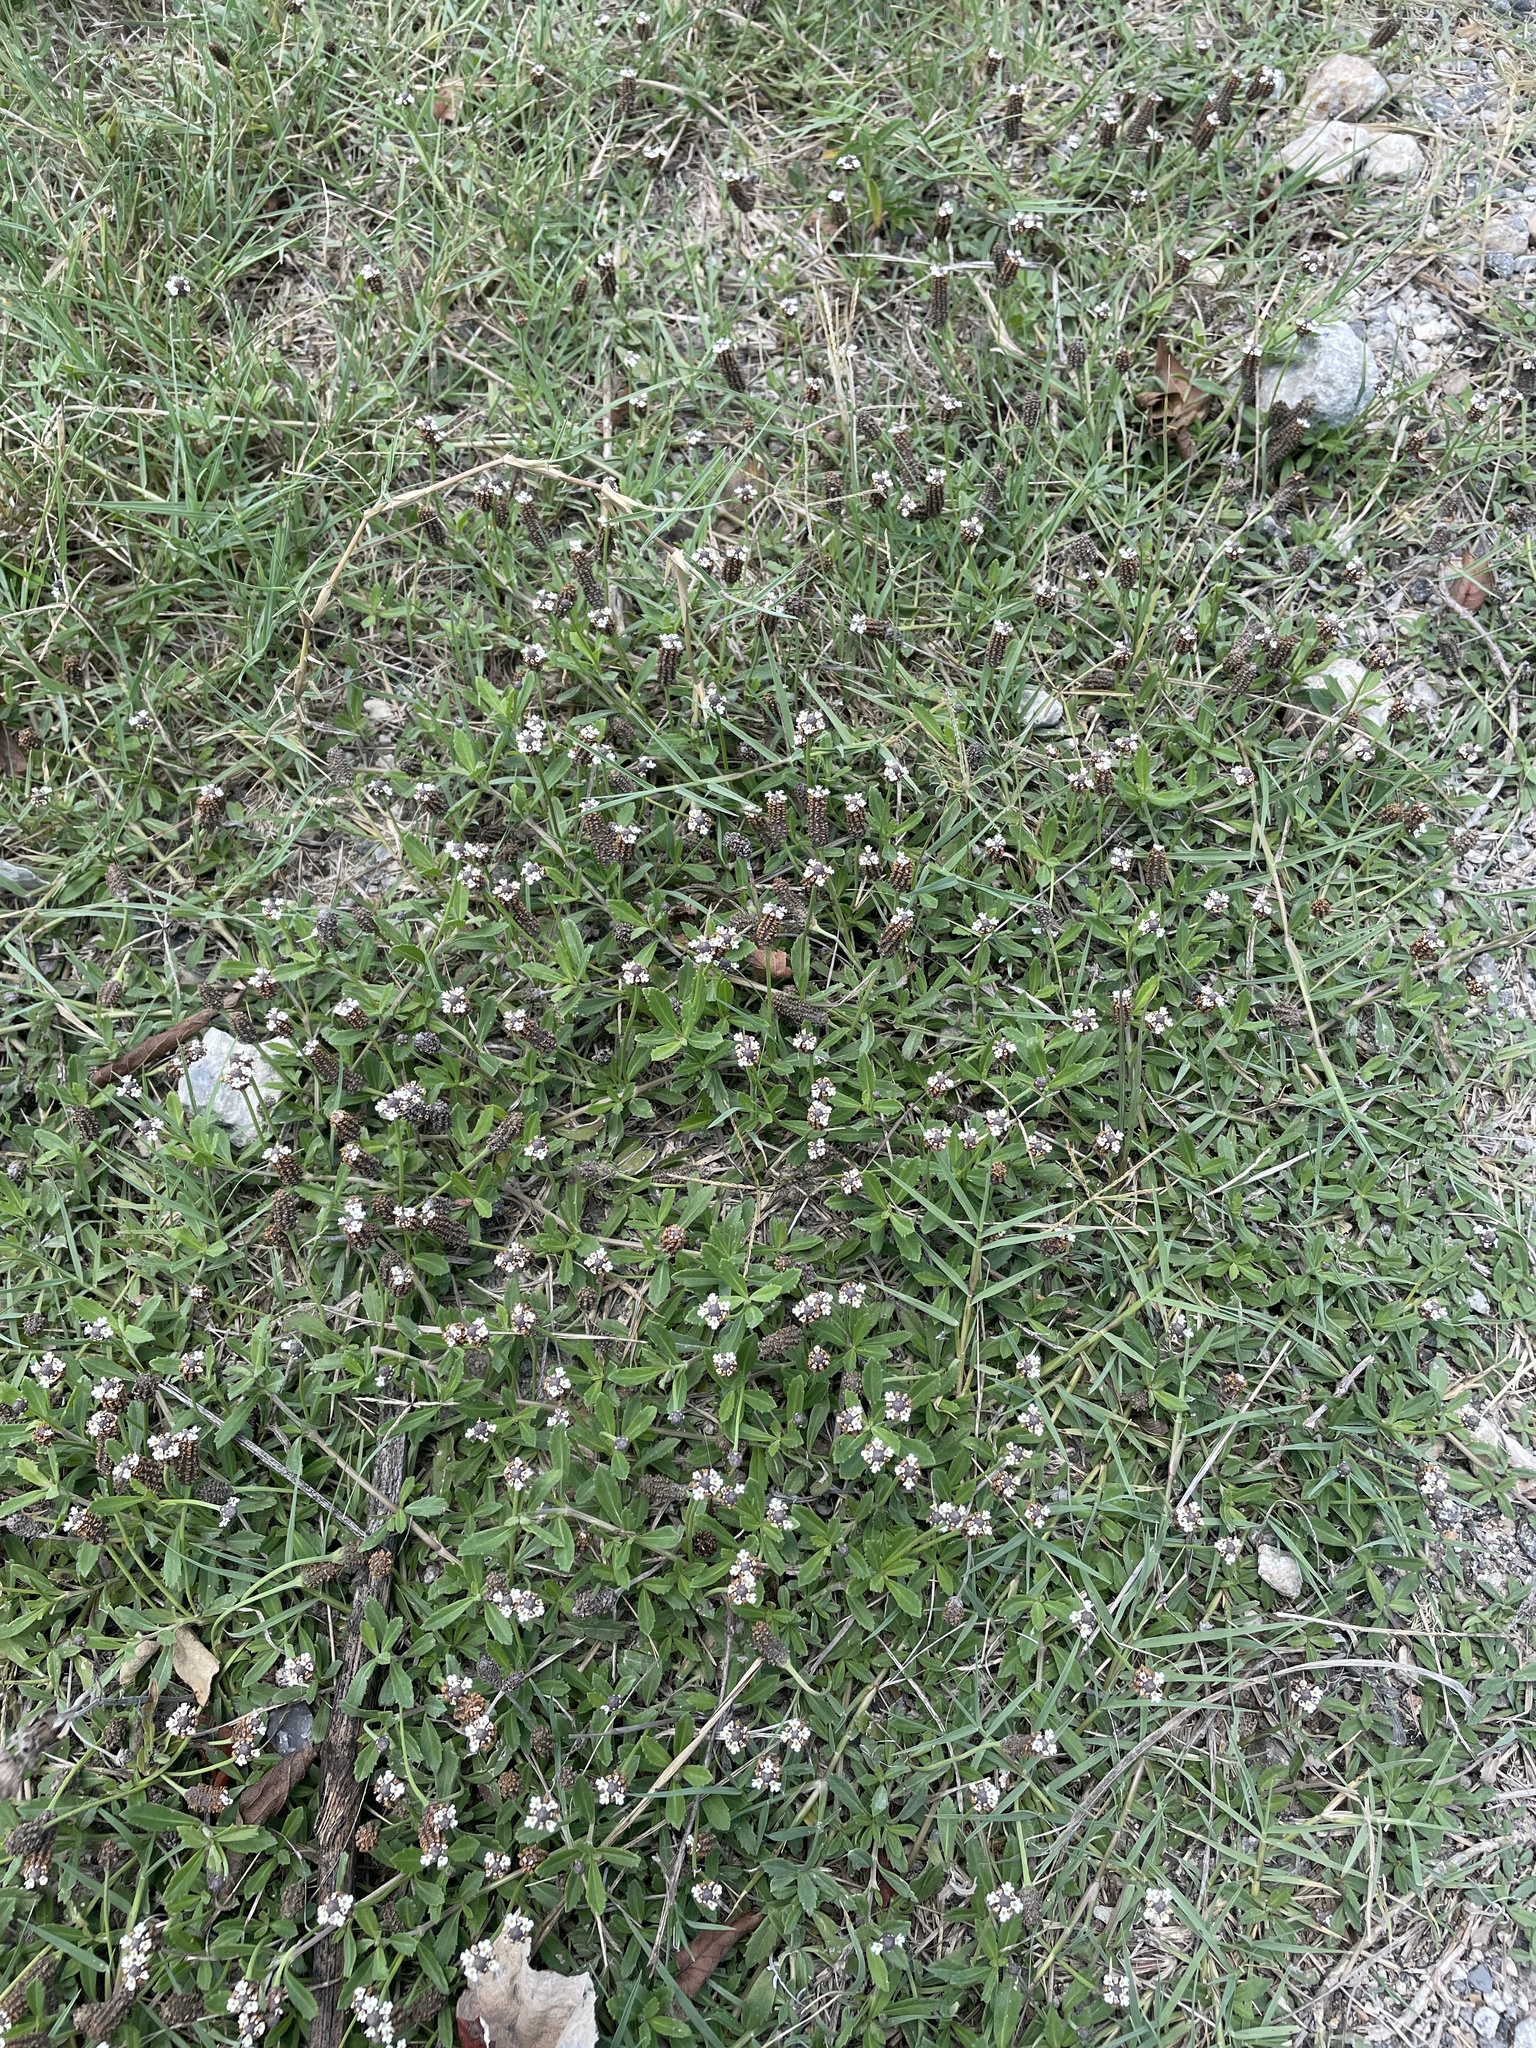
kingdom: Plantae
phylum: Tracheophyta
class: Magnoliopsida
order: Lamiales
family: Verbenaceae
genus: Phyla
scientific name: Phyla nodiflora
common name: Frogfruit
